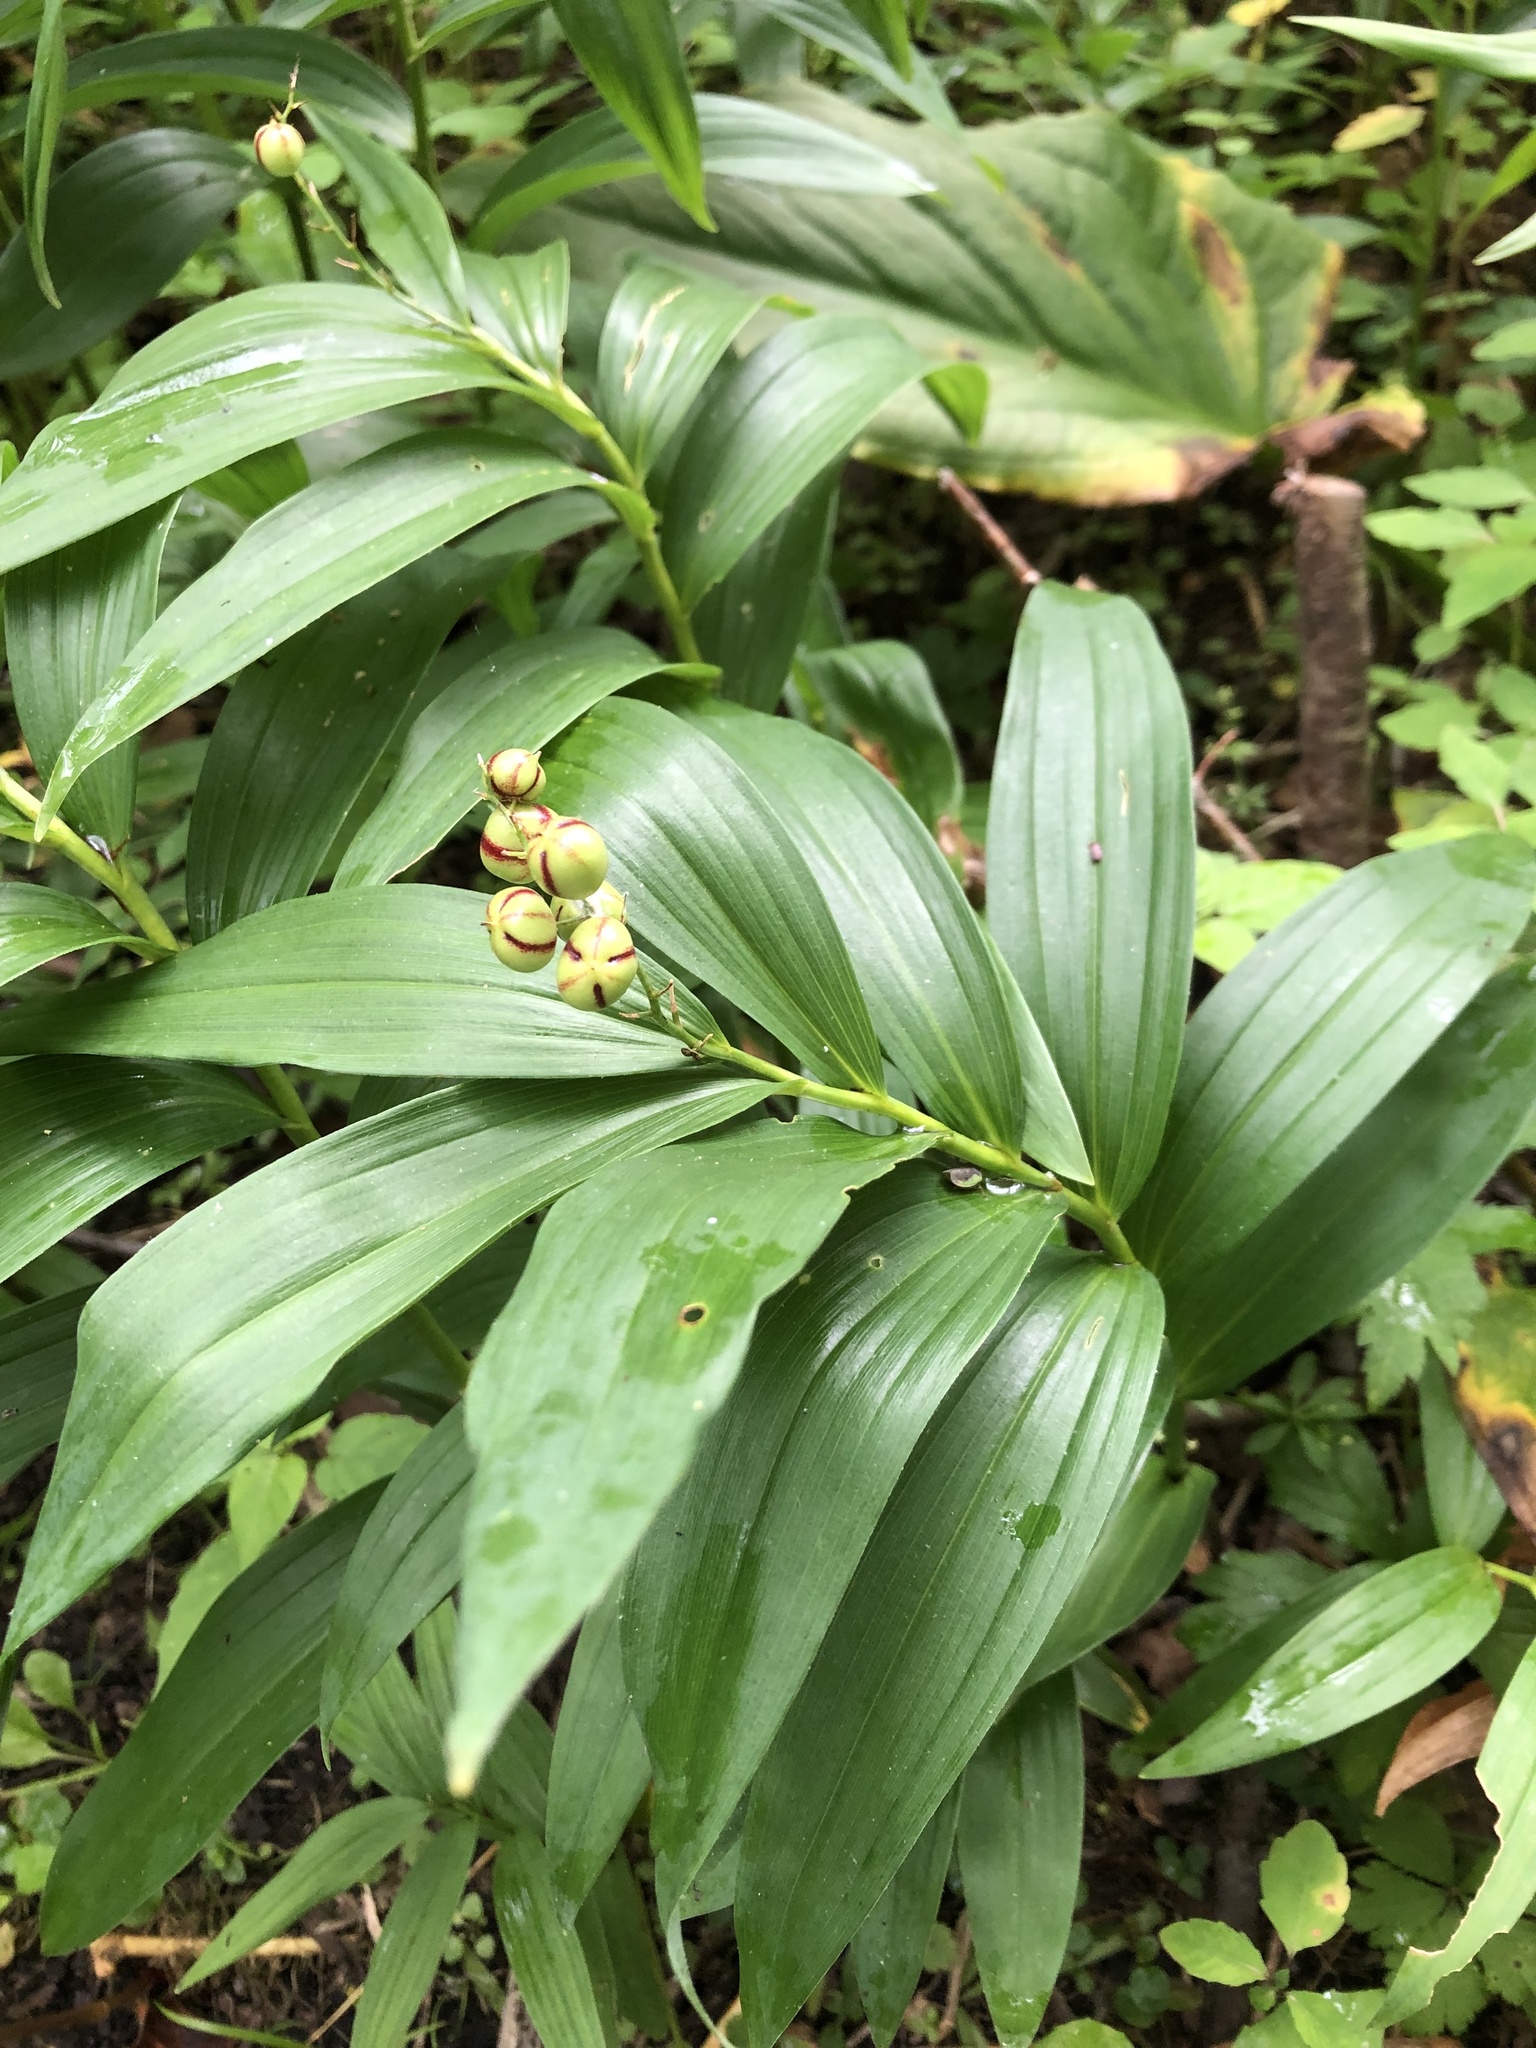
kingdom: Plantae
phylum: Tracheophyta
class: Liliopsida
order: Asparagales
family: Asparagaceae
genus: Maianthemum
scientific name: Maianthemum stellatum
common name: Little false solomon's seal
